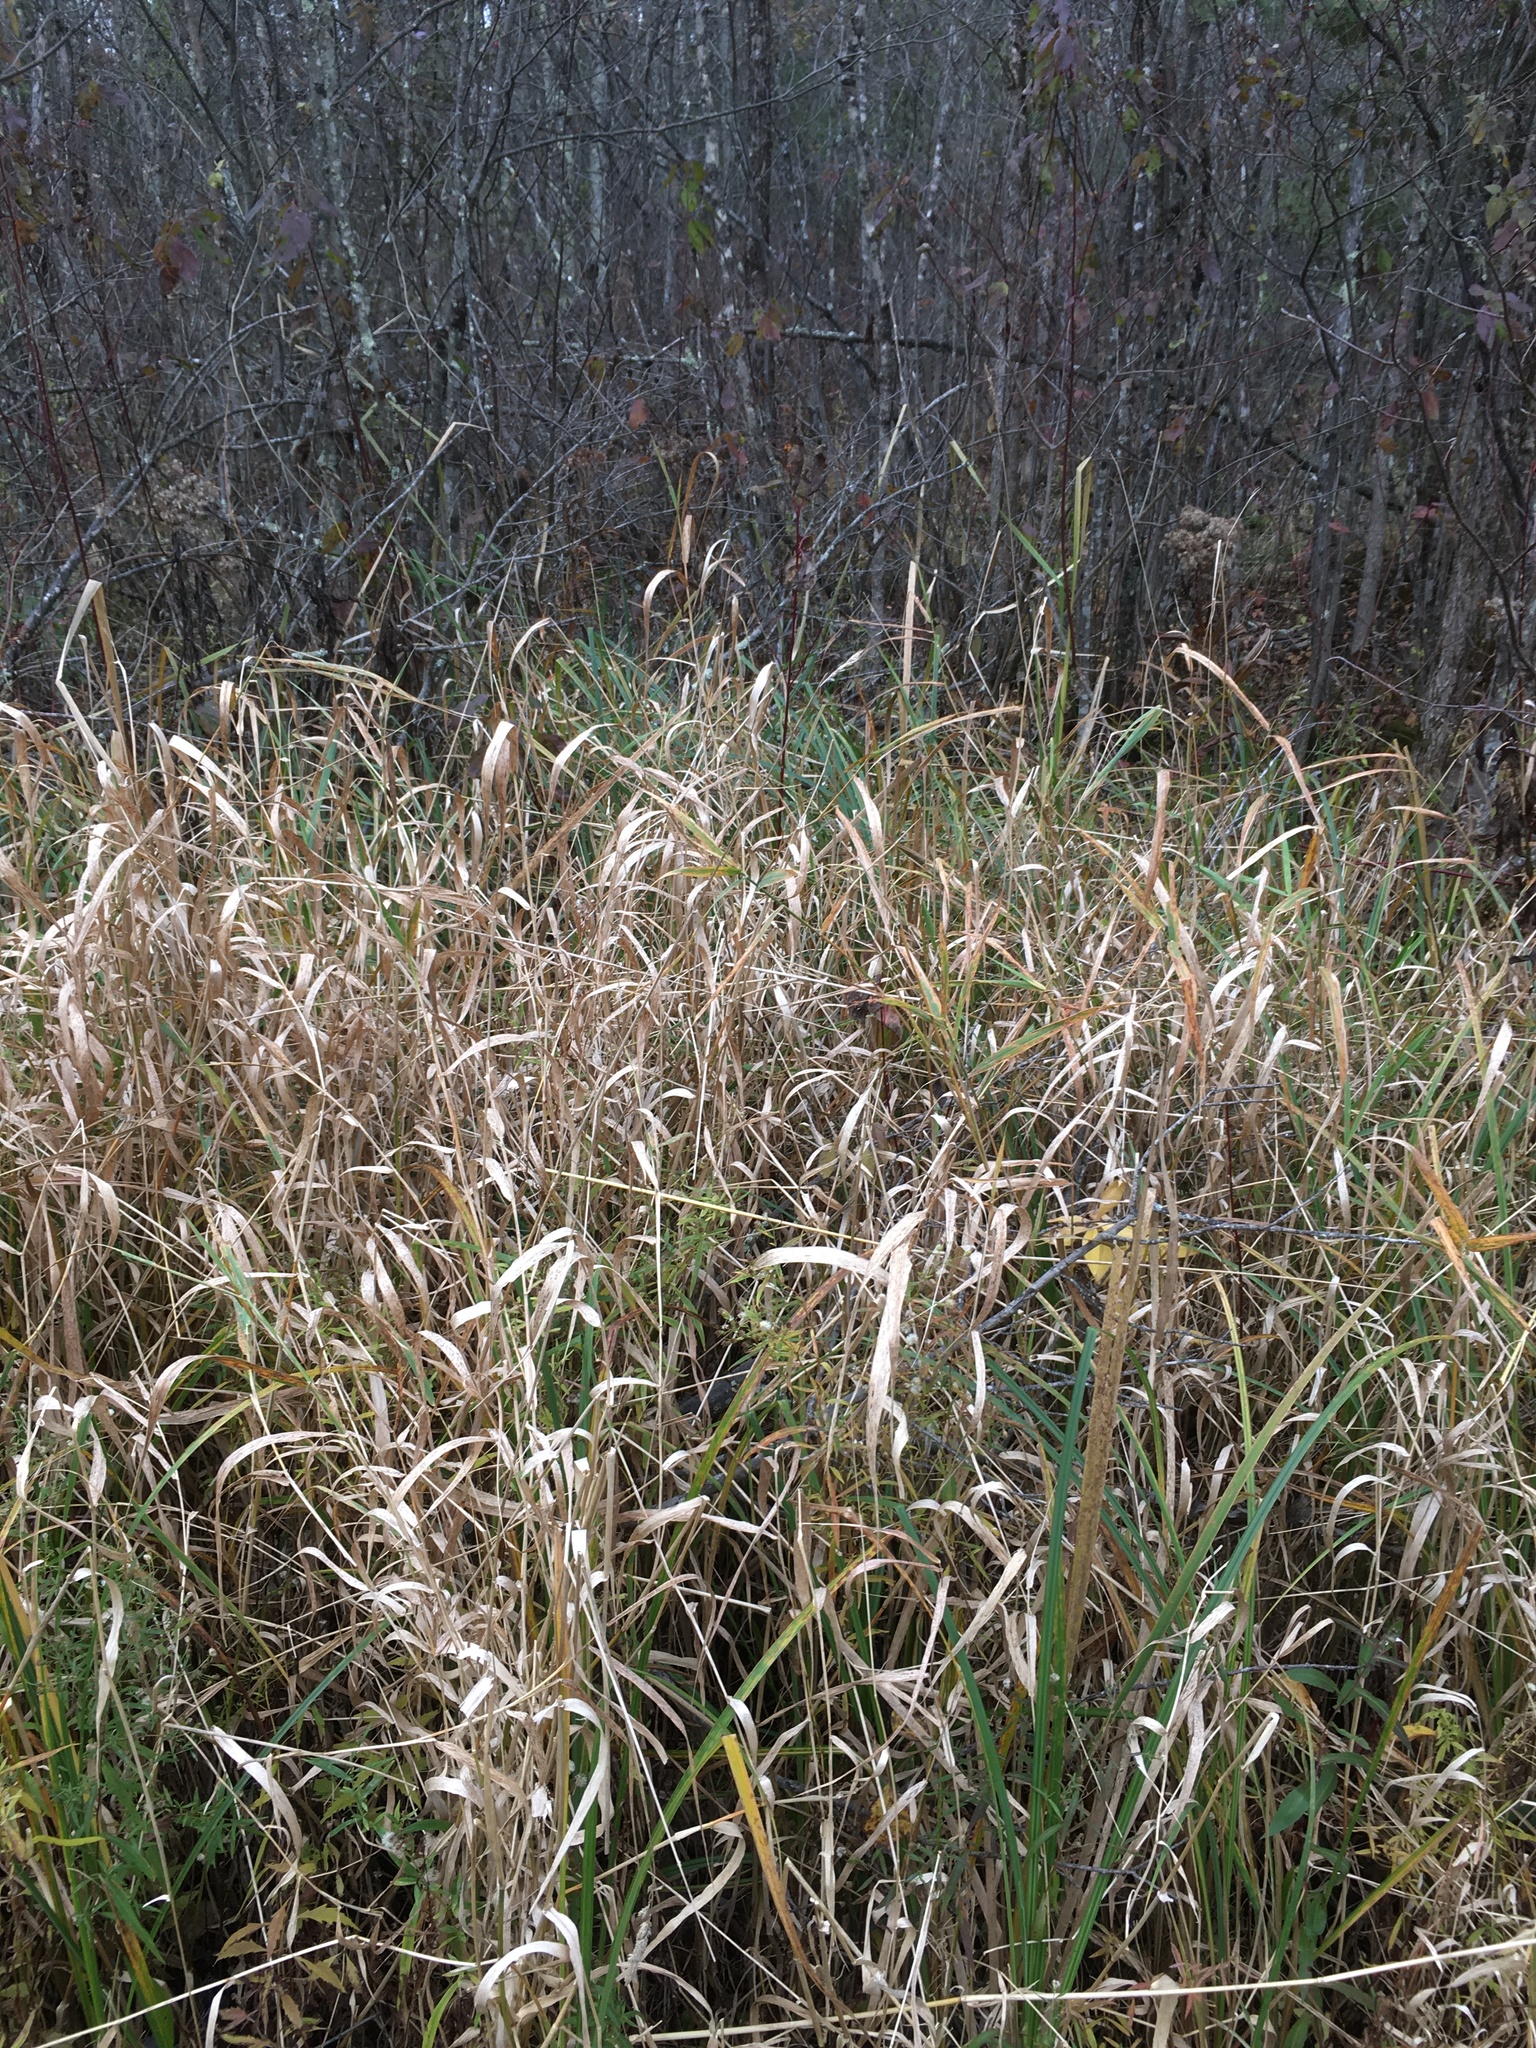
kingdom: Plantae
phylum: Tracheophyta
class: Liliopsida
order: Poales
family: Poaceae
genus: Phalaris
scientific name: Phalaris arundinacea
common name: Reed canary-grass
